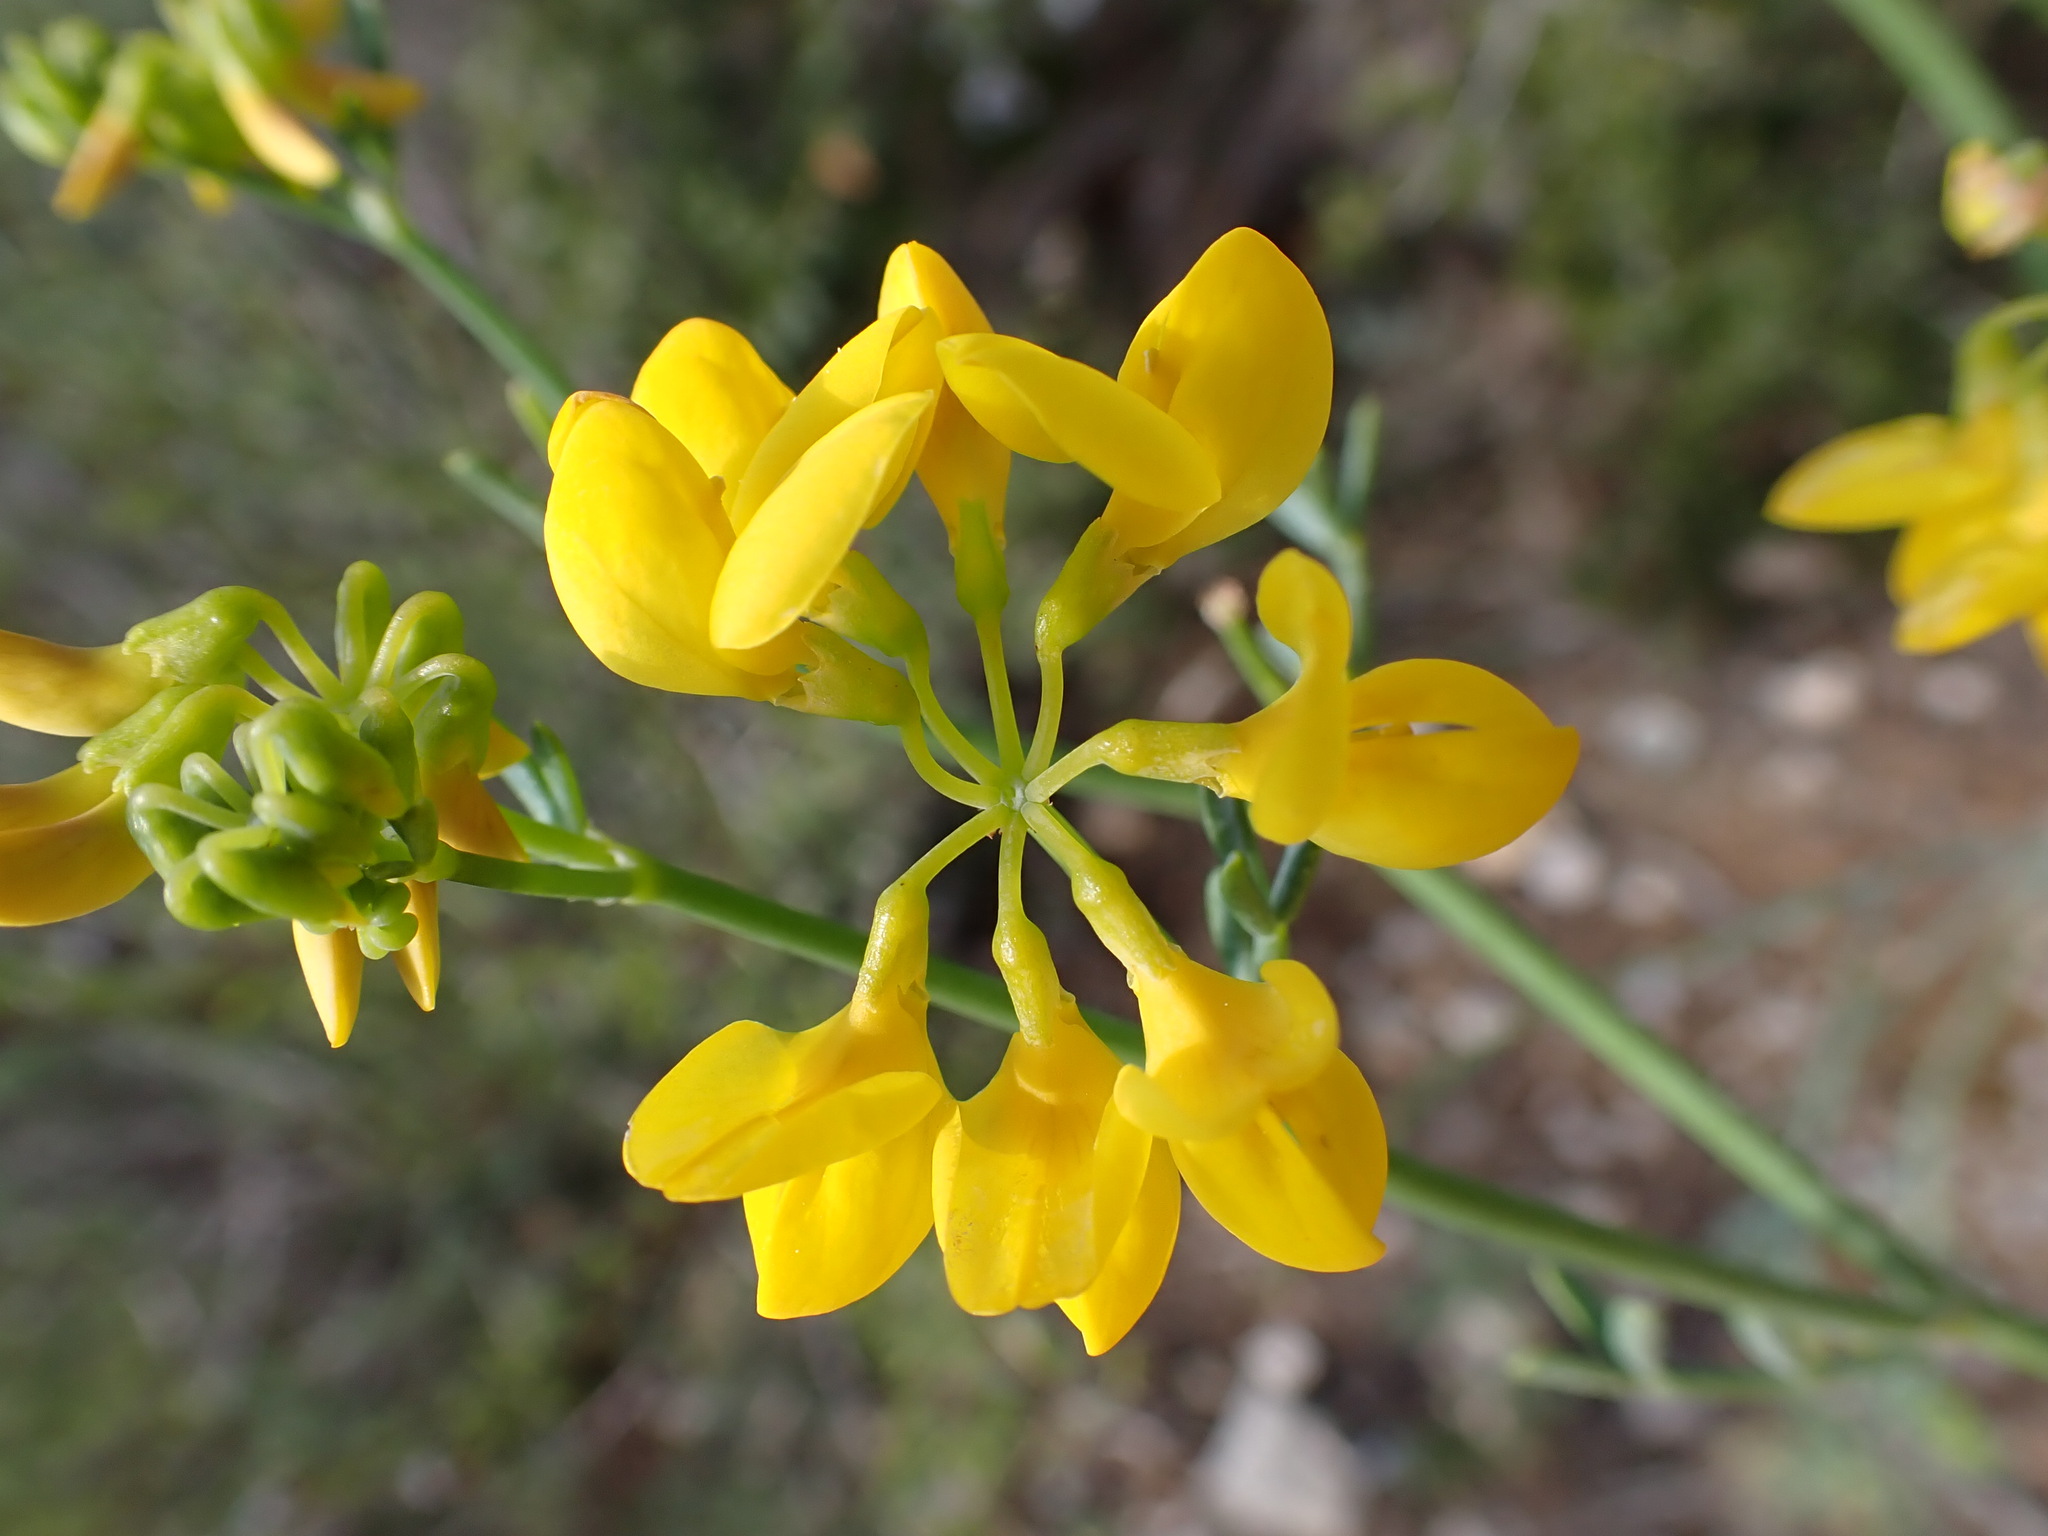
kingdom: Plantae
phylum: Tracheophyta
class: Magnoliopsida
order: Fabales
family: Fabaceae
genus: Coronilla
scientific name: Coronilla juncea
